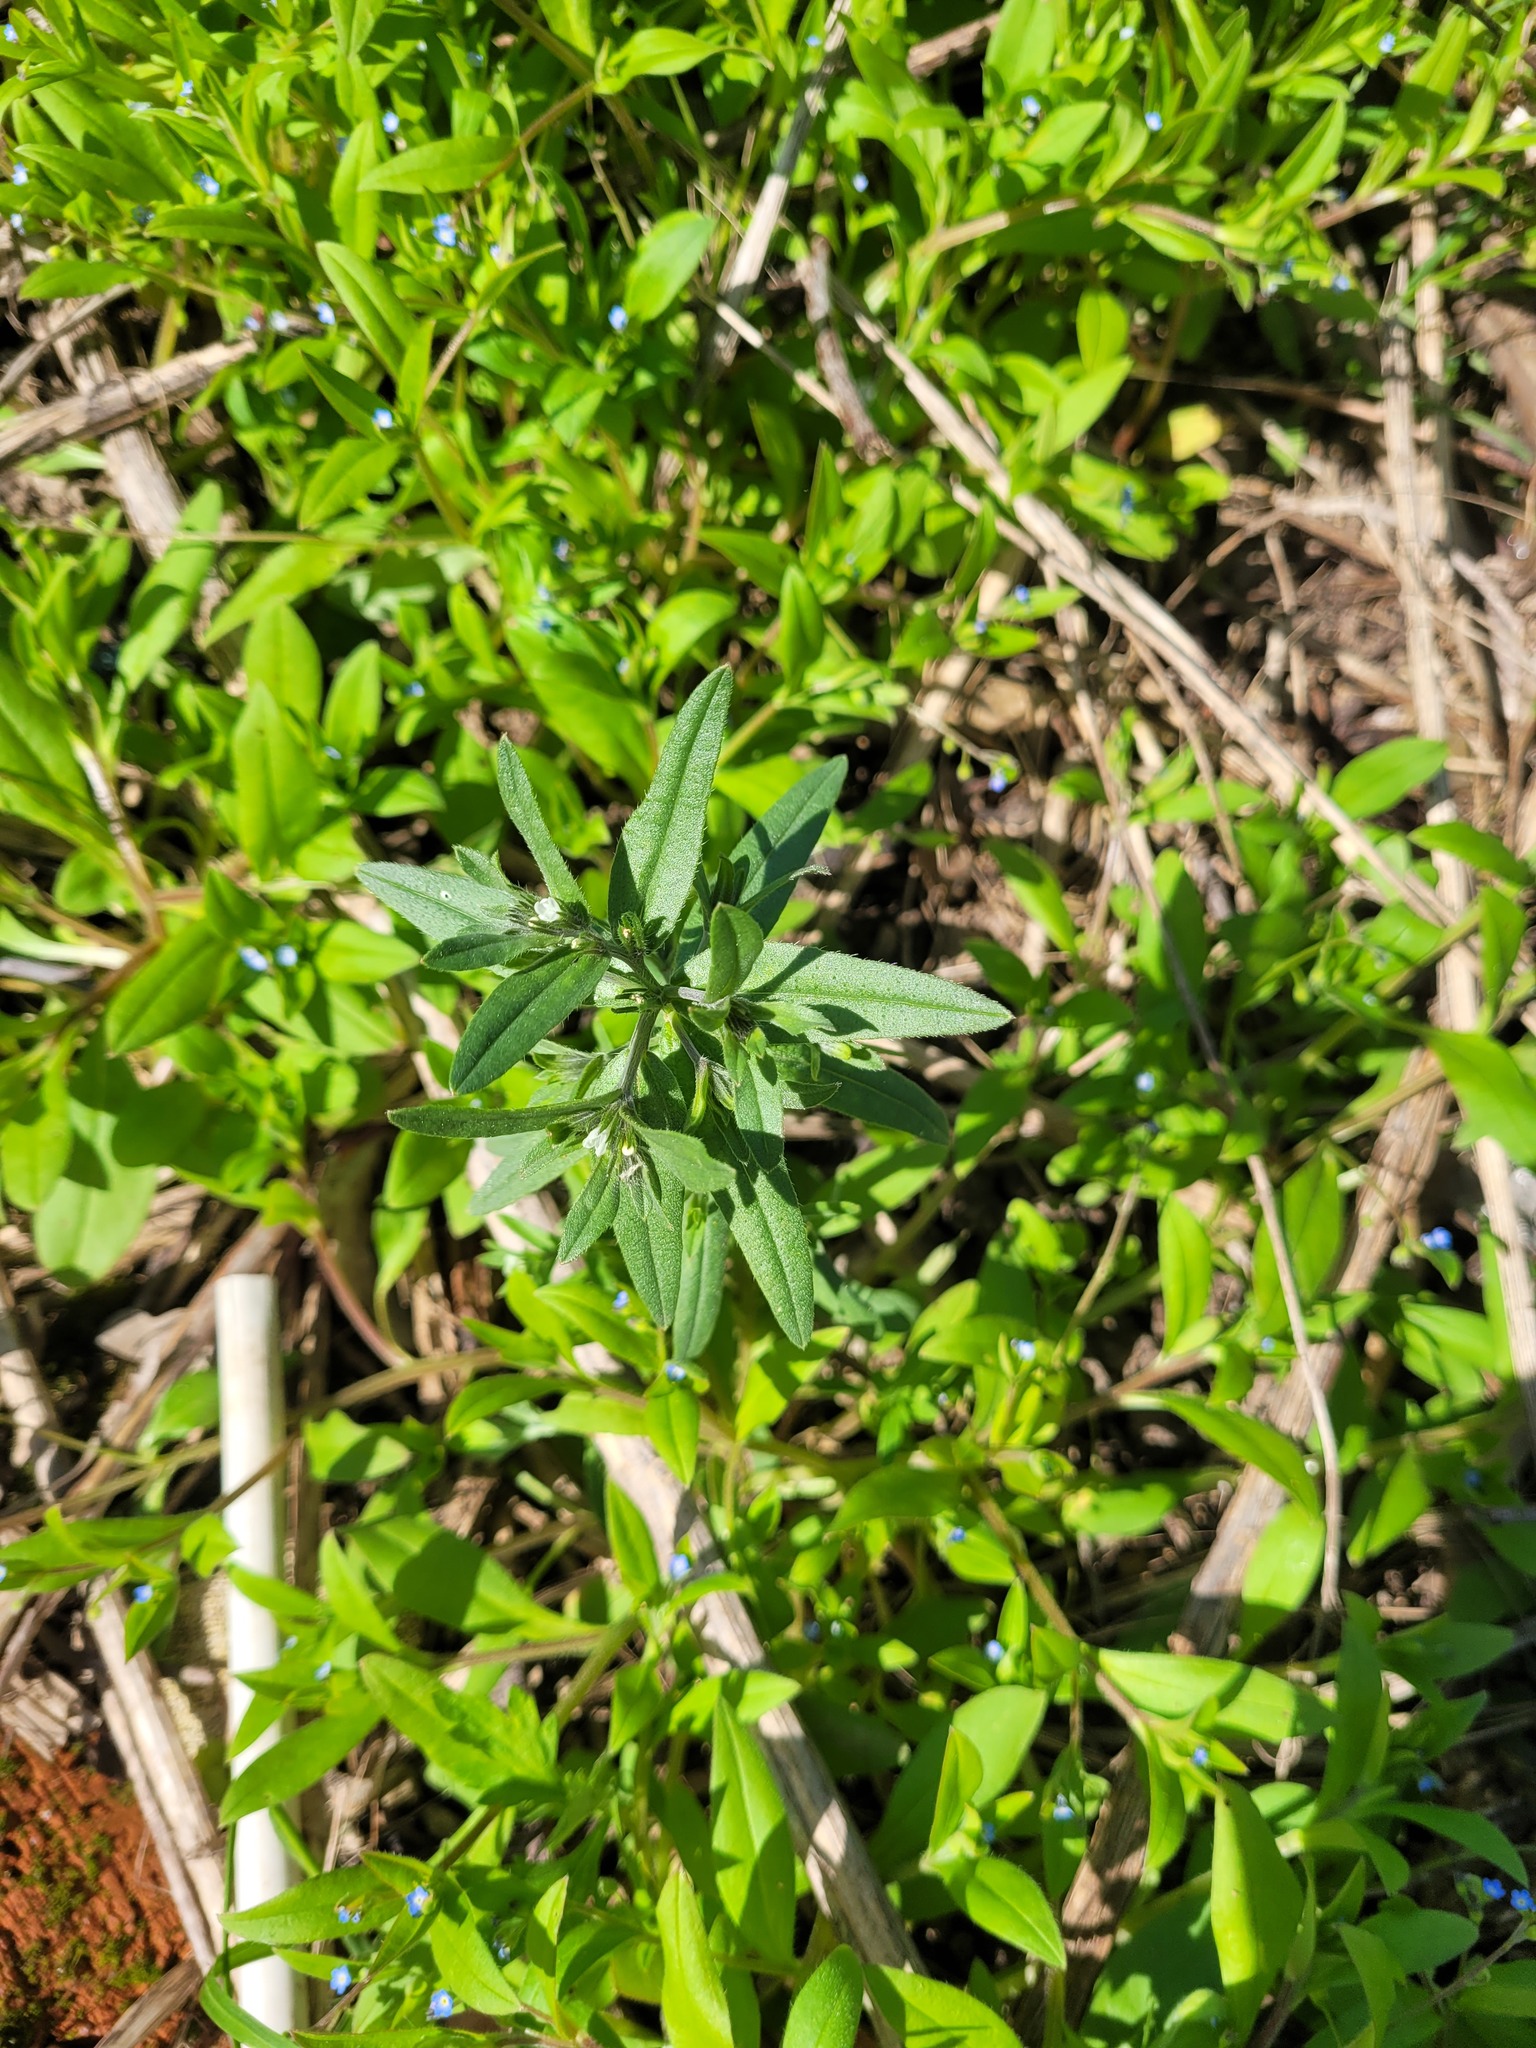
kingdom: Plantae
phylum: Tracheophyta
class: Magnoliopsida
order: Boraginales
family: Boraginaceae
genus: Buglossoides
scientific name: Buglossoides arvensis
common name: Corn gromwell
